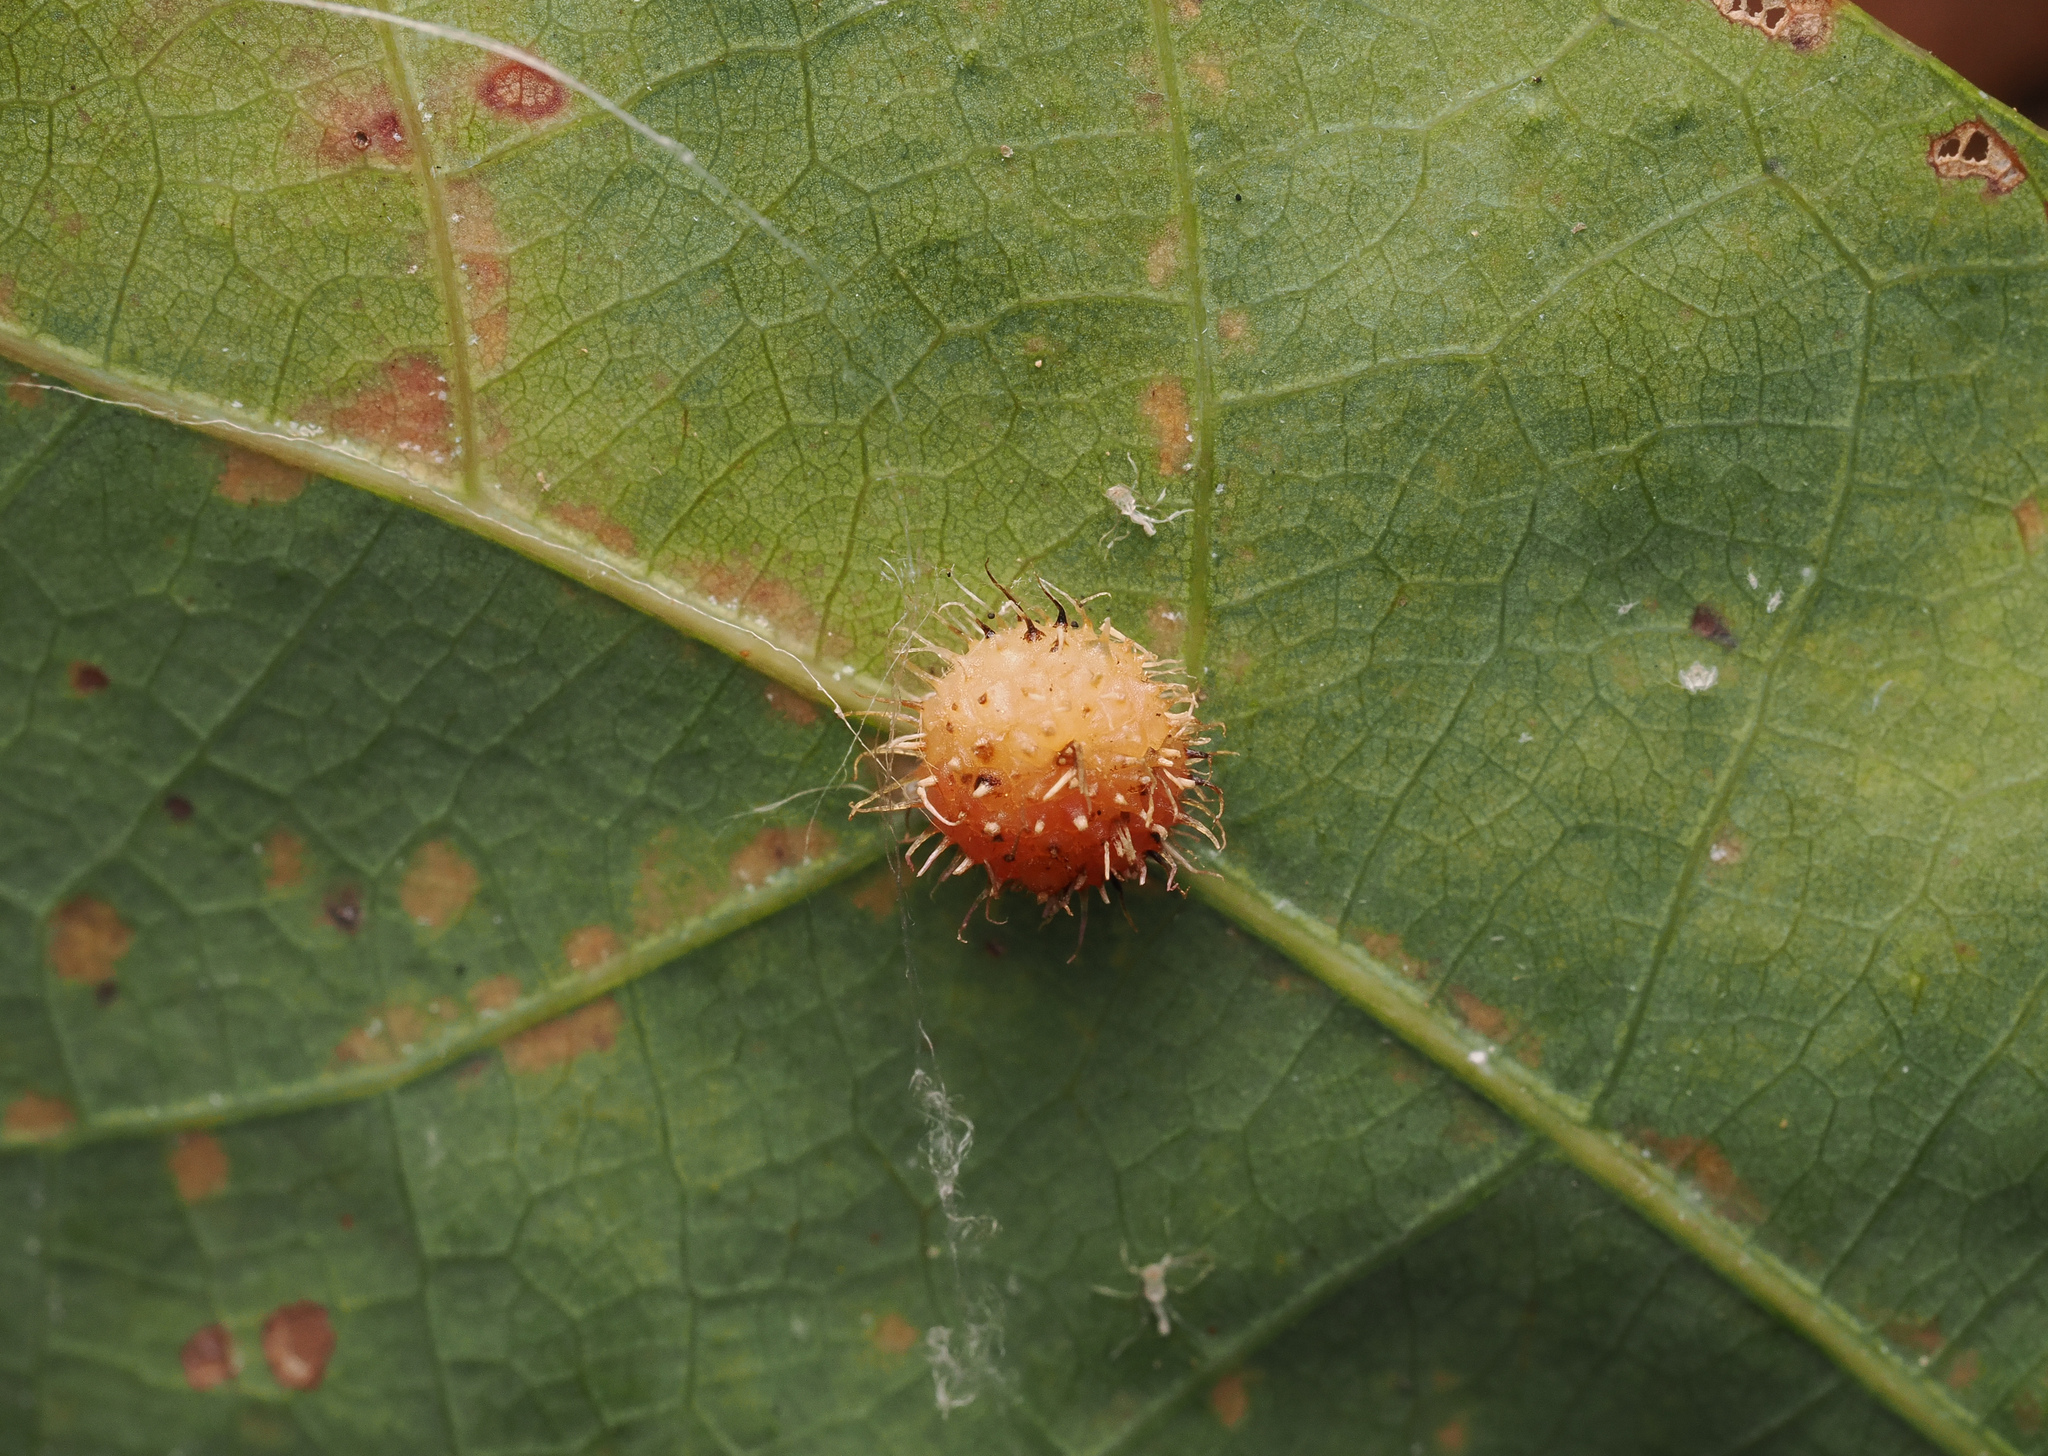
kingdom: Animalia
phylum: Arthropoda
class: Insecta
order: Hymenoptera
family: Cynipidae
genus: Acraspis
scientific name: Acraspis erinacei
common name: Hedgehog gall wasp
